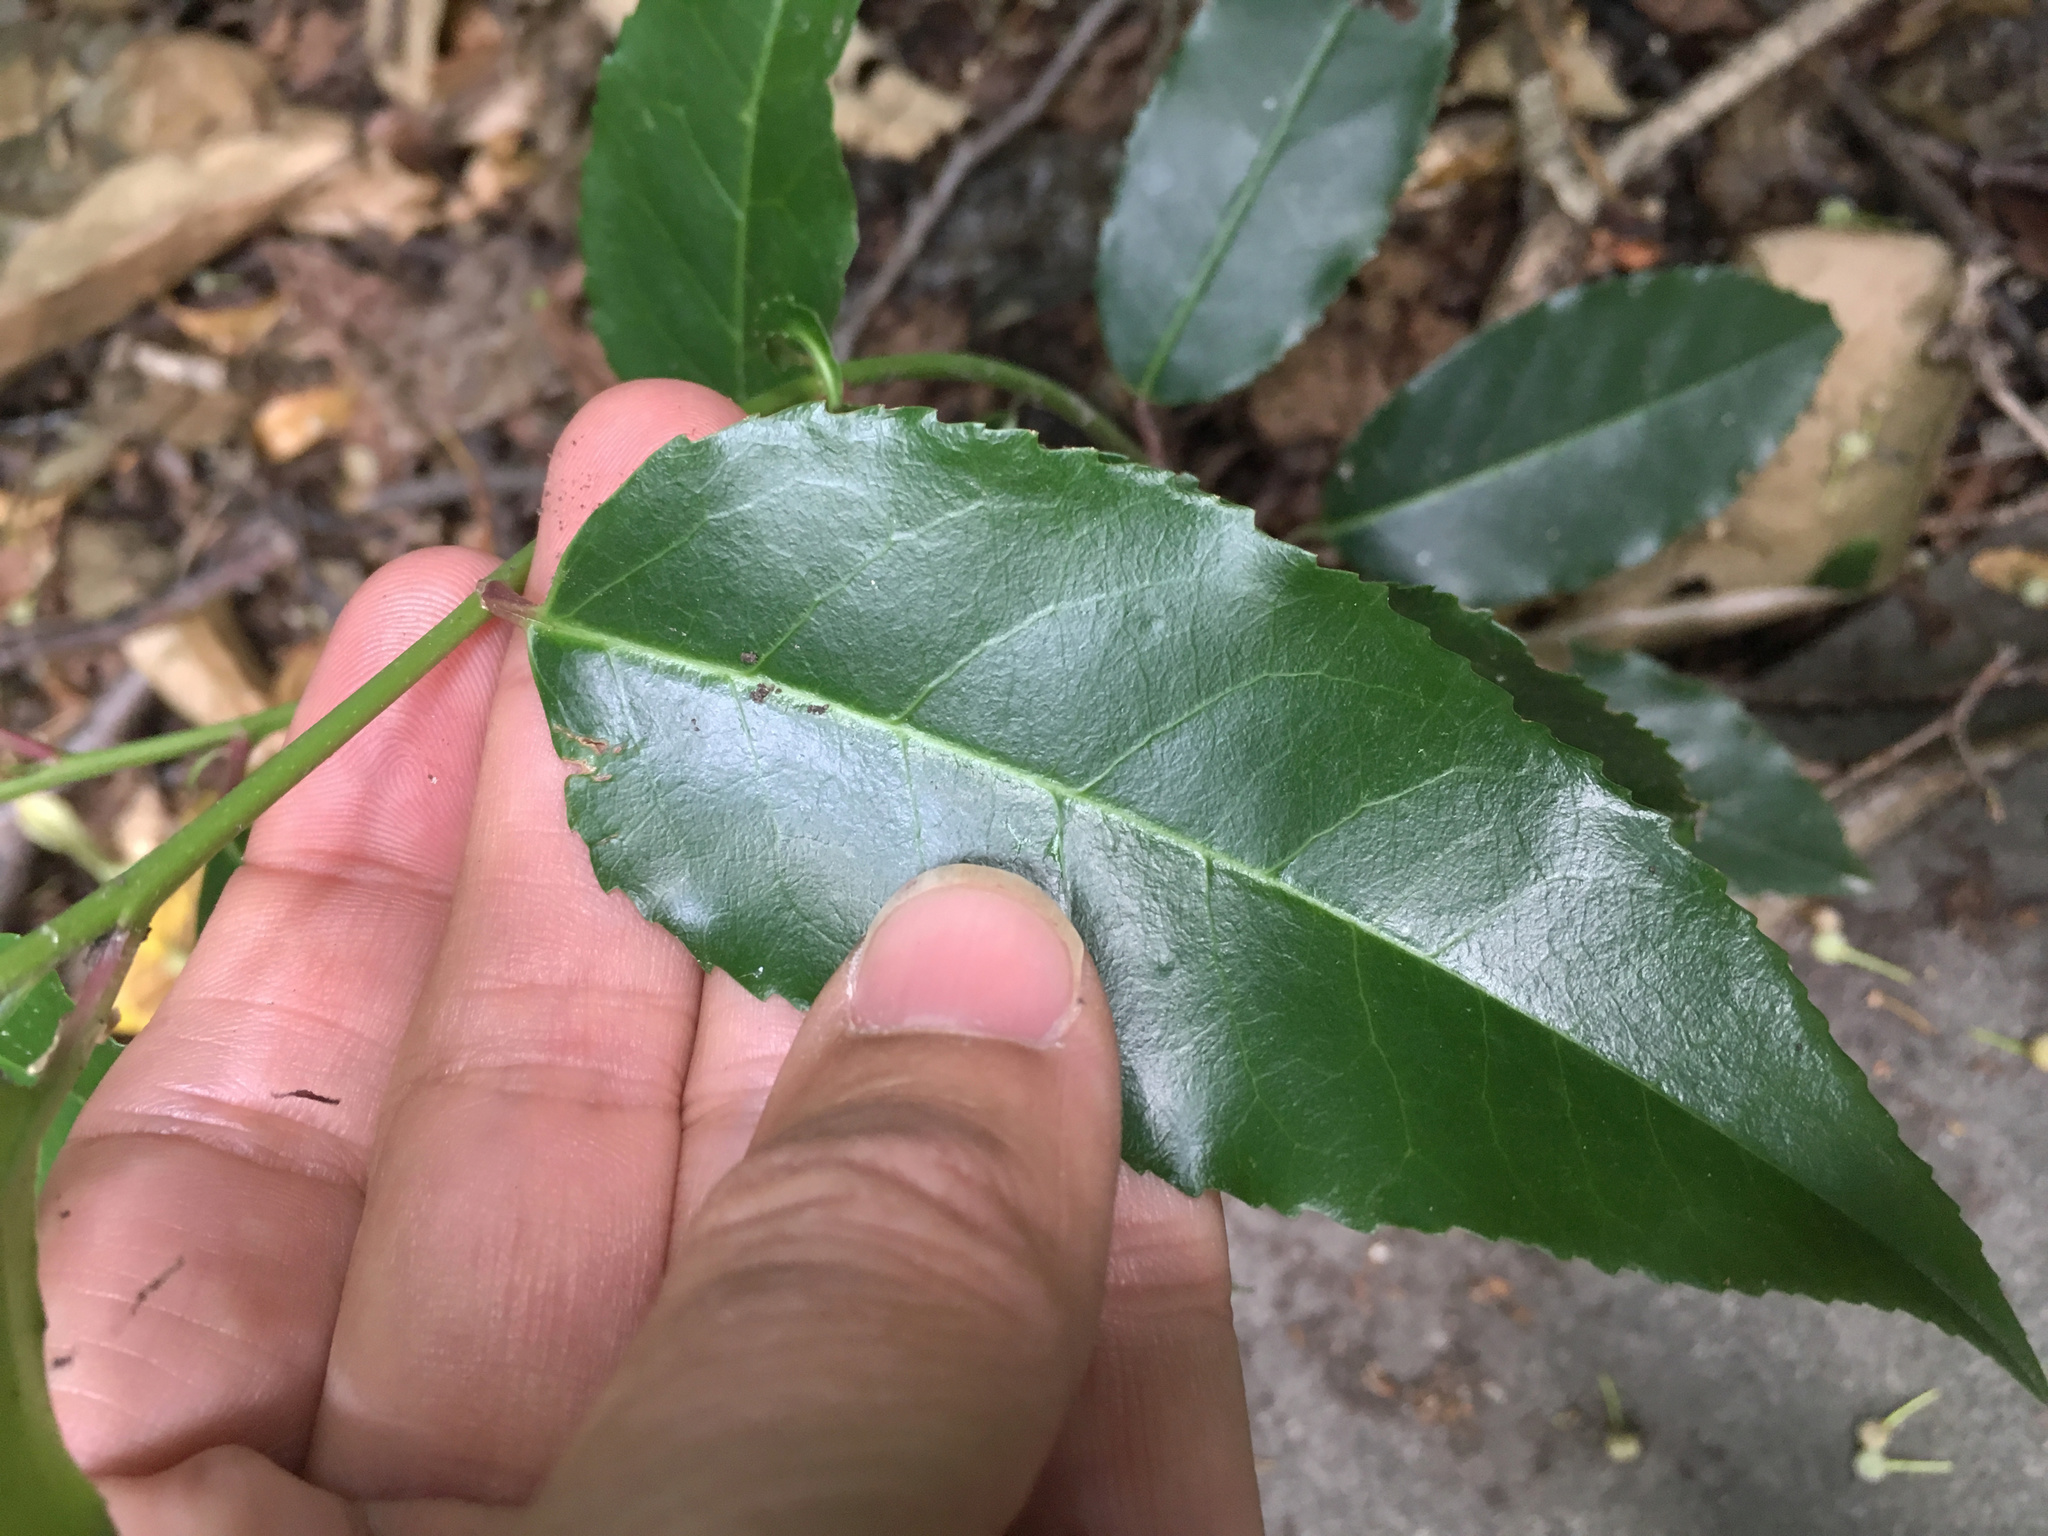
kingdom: Plantae
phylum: Tracheophyta
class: Magnoliopsida
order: Rosales
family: Rosaceae
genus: Prunus
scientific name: Prunus lusitanica
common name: Portugal laurel
